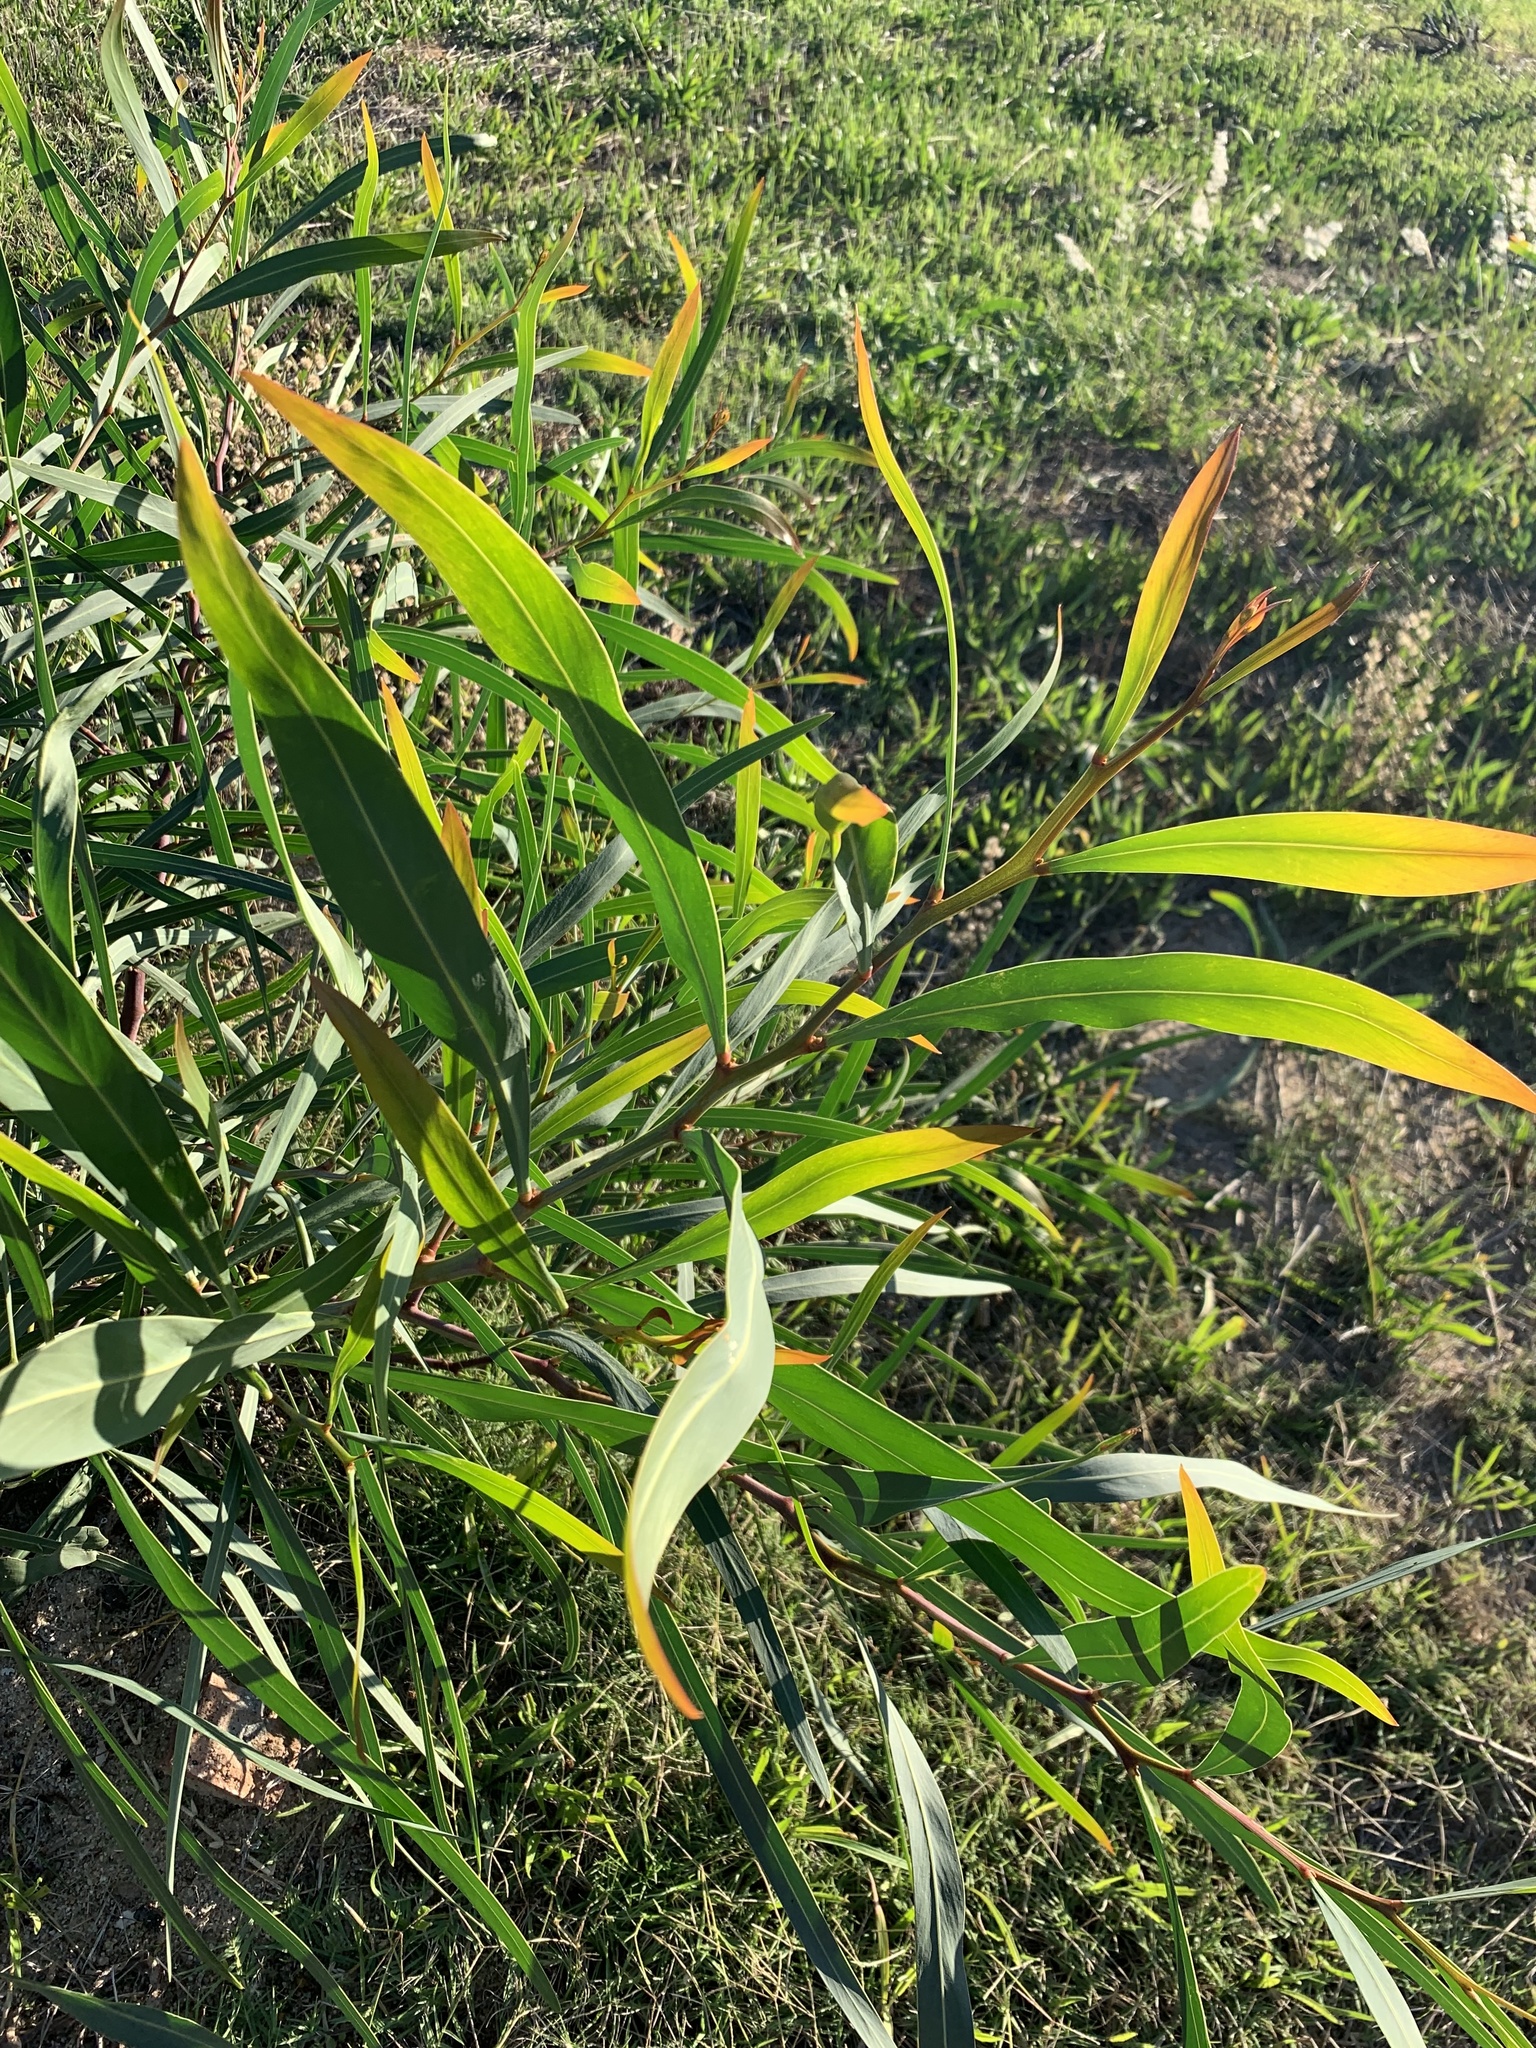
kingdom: Plantae
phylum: Tracheophyta
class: Magnoliopsida
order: Fabales
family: Fabaceae
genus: Acacia
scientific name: Acacia saligna
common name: Orange wattle
